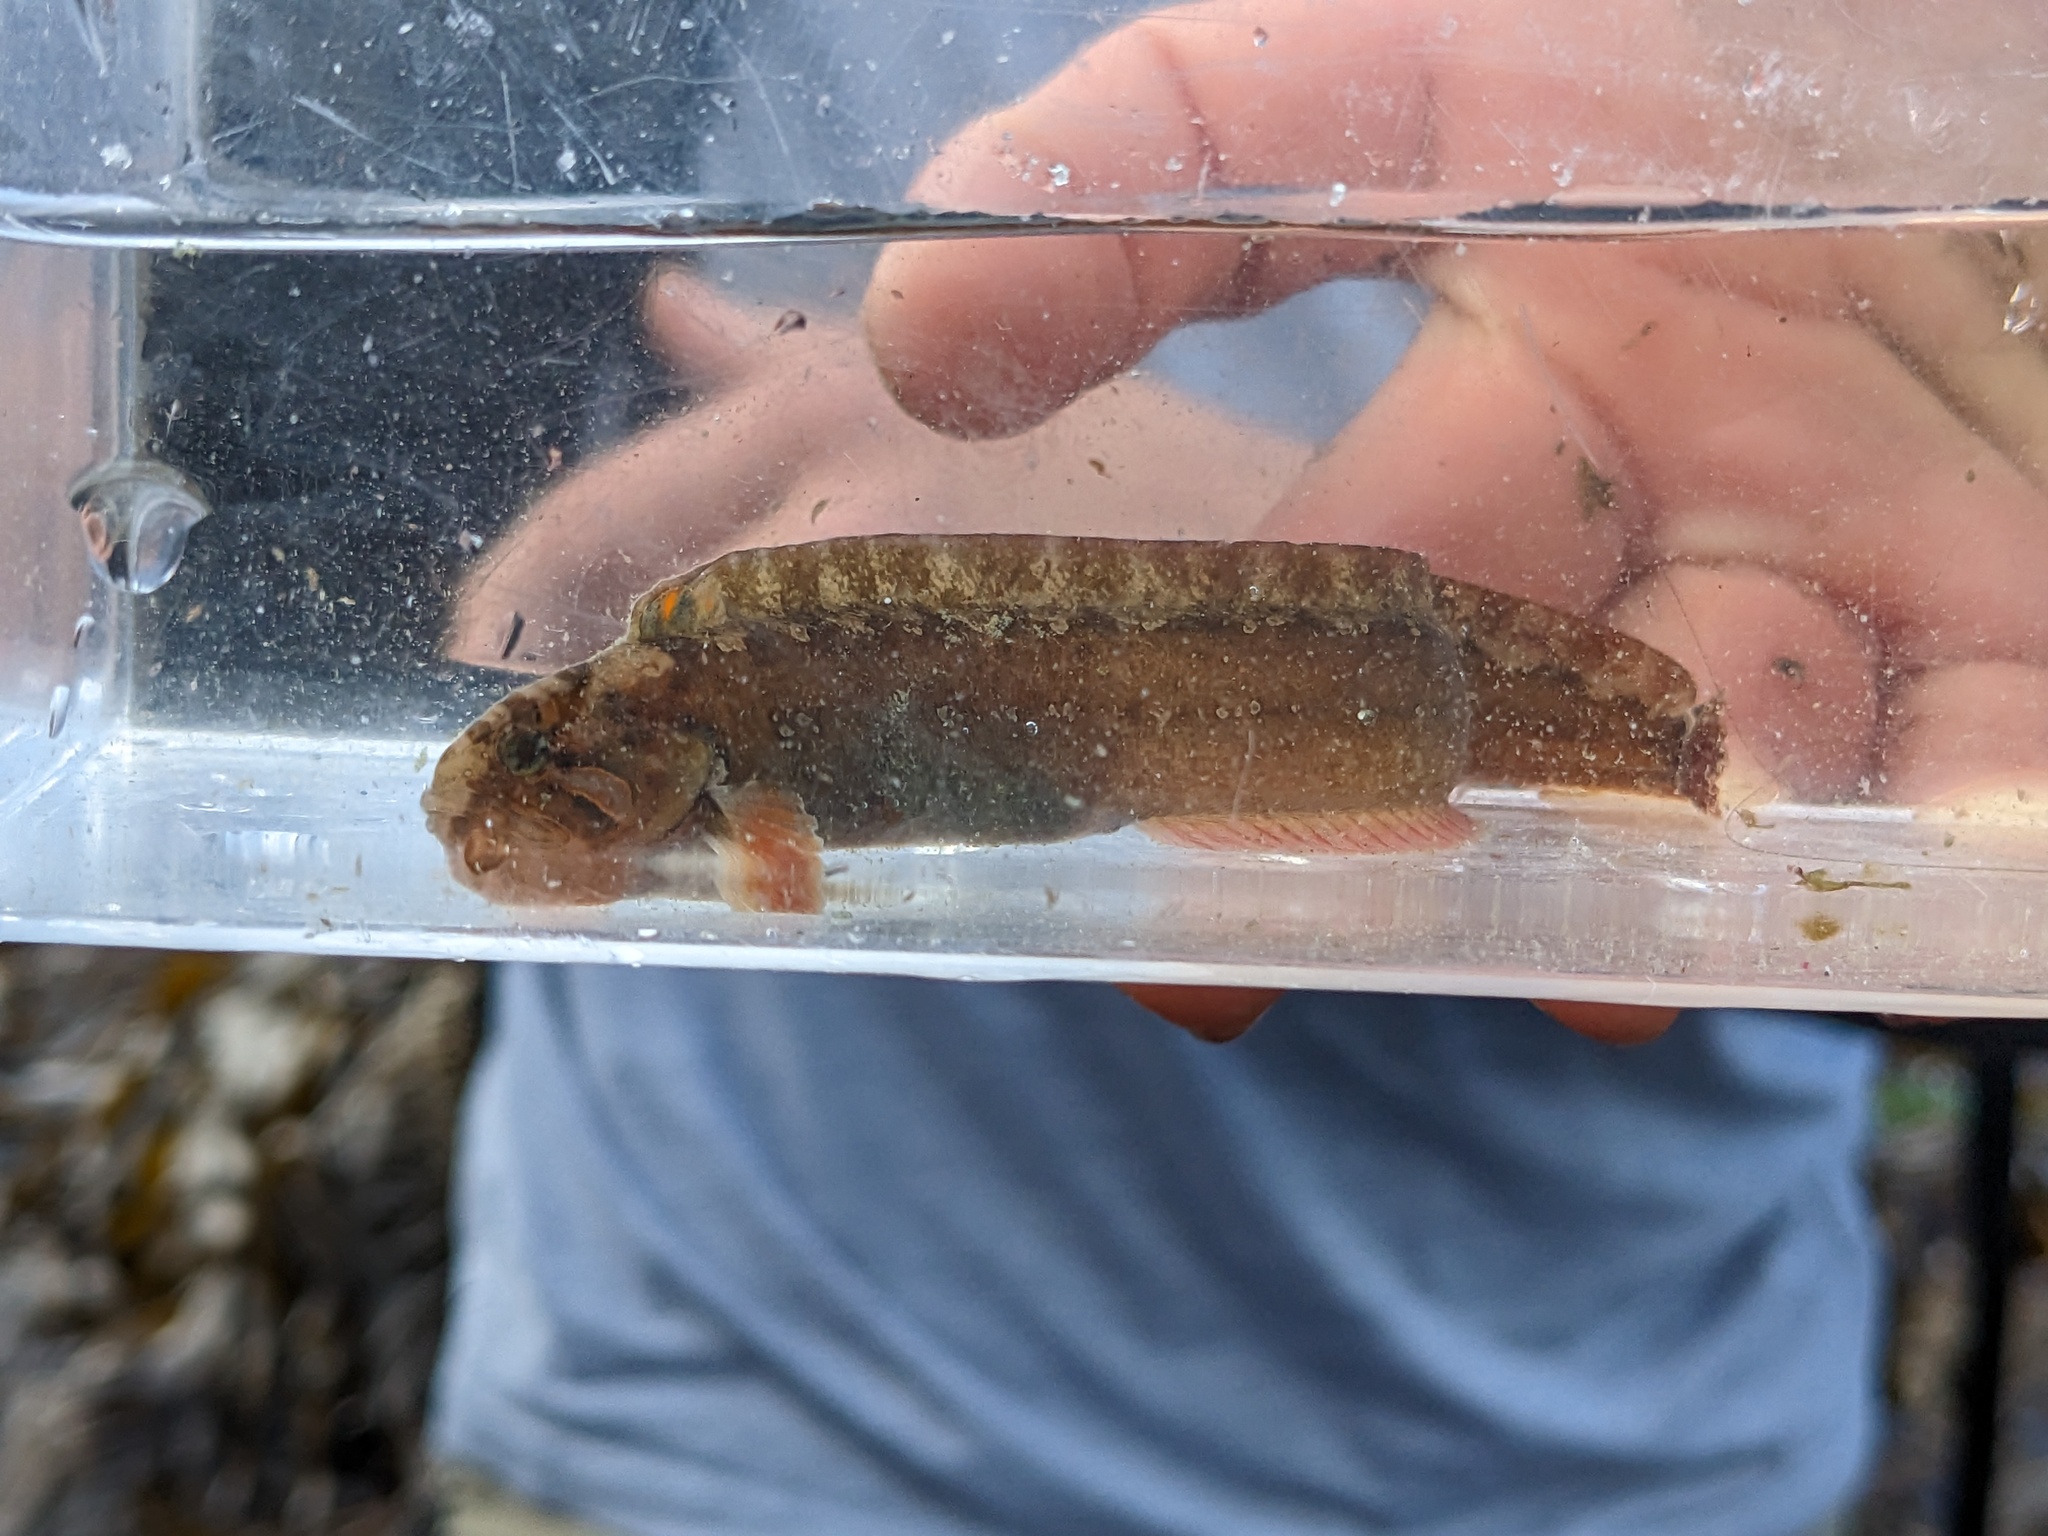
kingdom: Animalia
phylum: Chordata
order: Perciformes
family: Stichaeidae
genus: Anoplarchus
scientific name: Anoplarchus purpurescens
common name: High cockscomb
